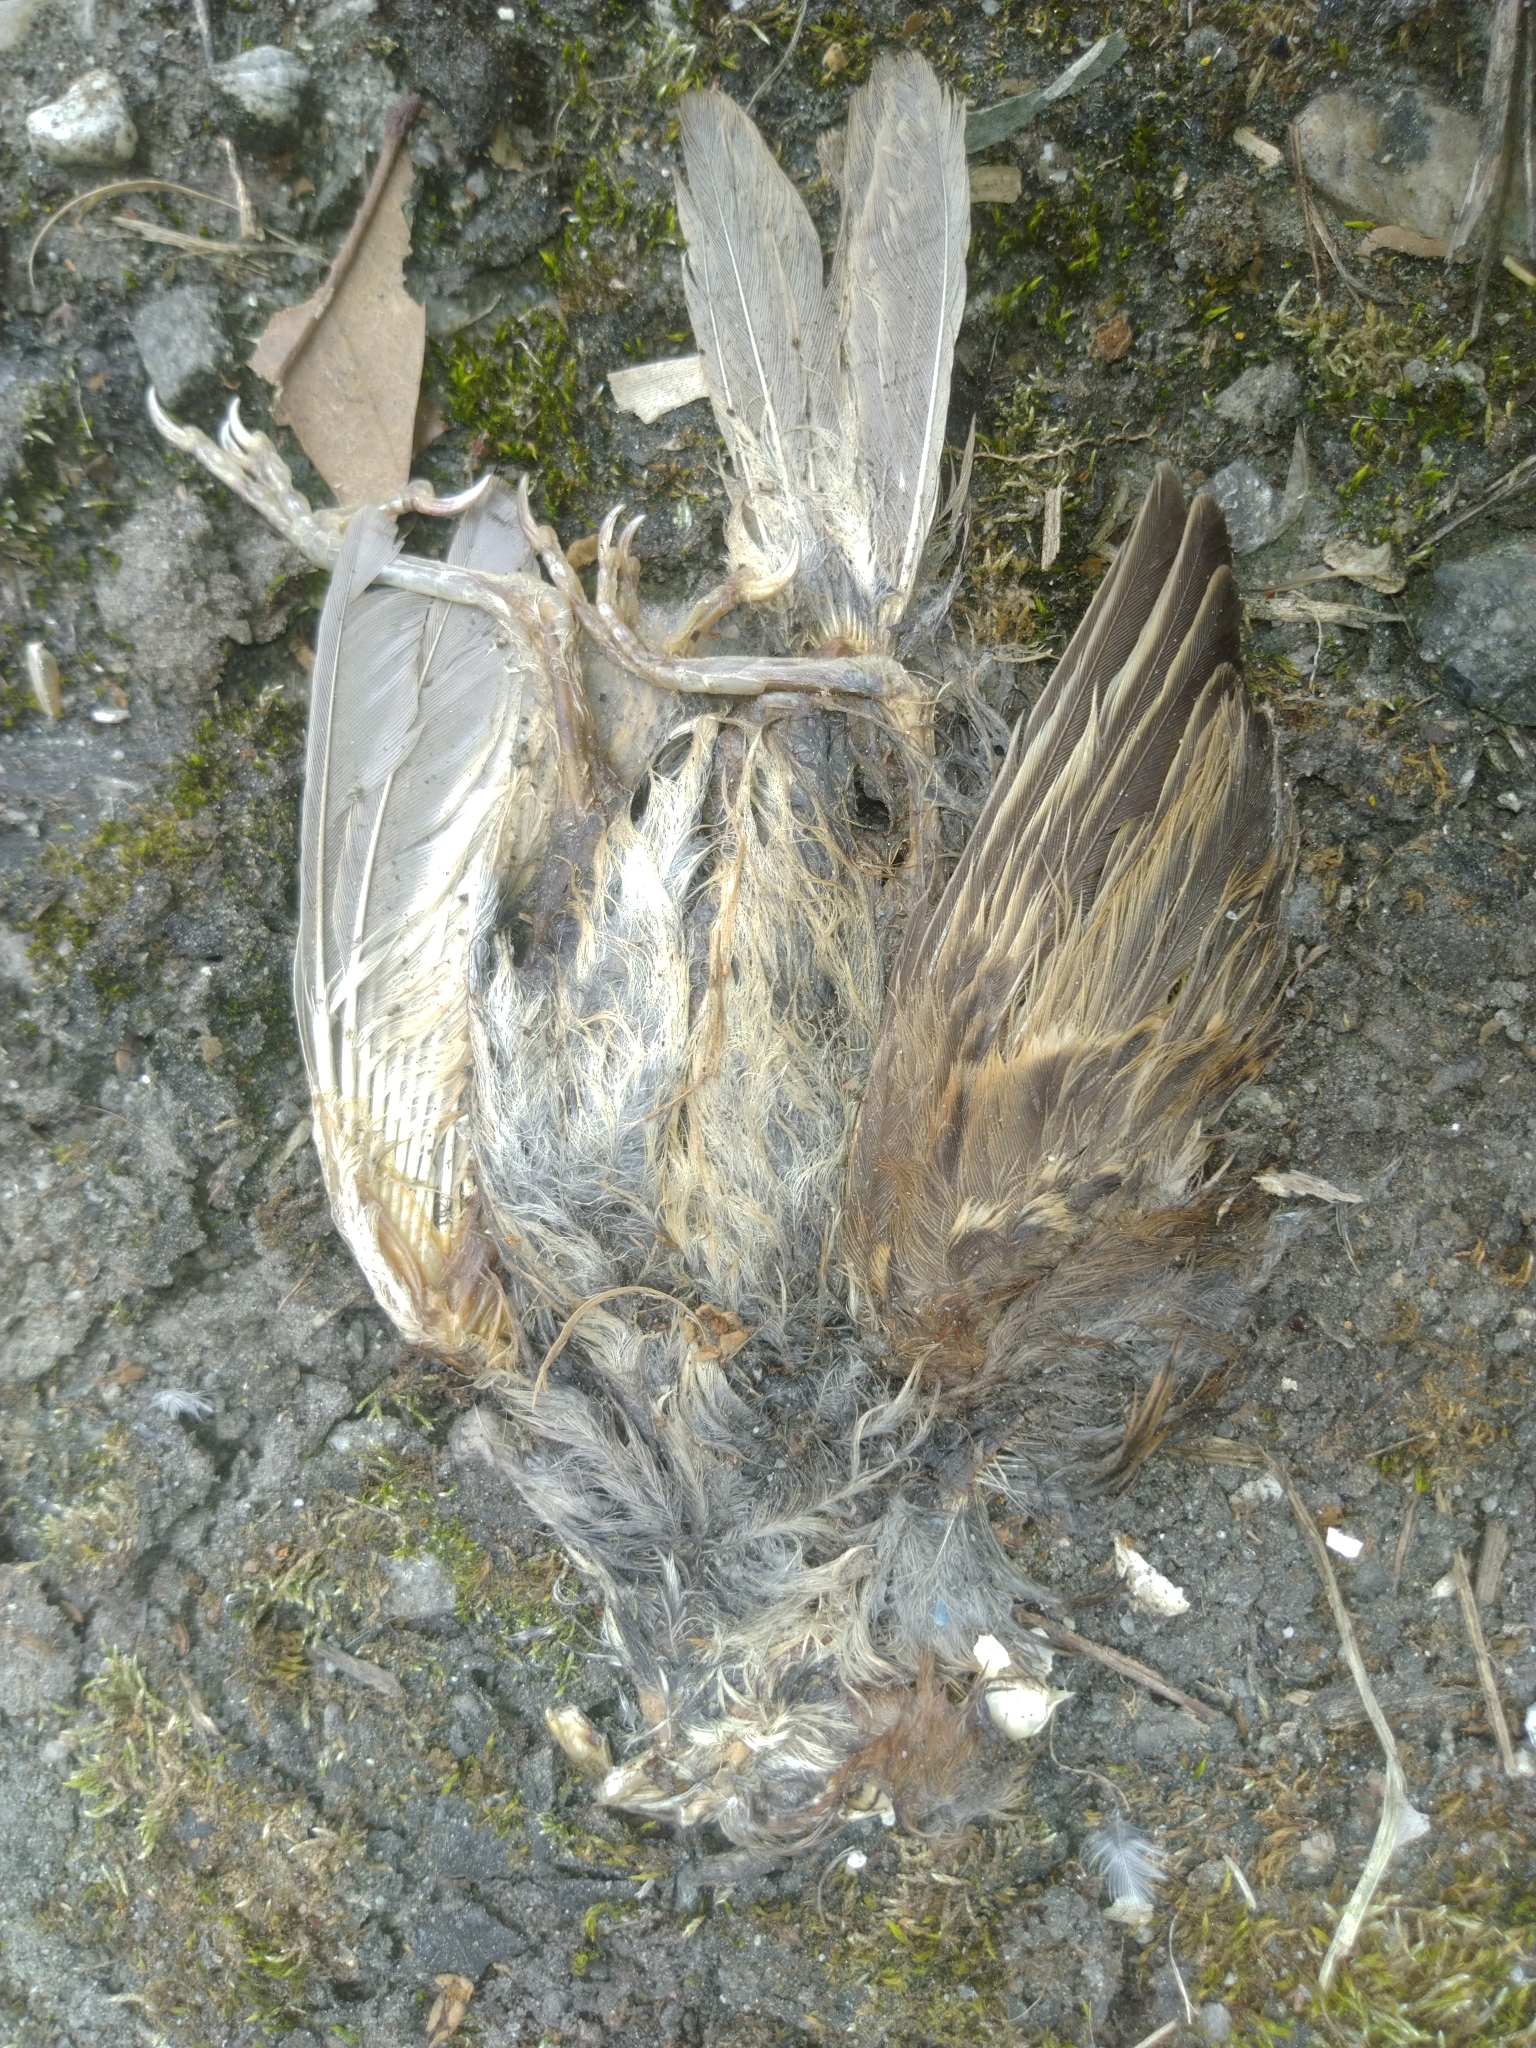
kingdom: Animalia
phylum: Chordata
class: Aves
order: Passeriformes
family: Passeridae
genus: Passer
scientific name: Passer montanus
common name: Eurasian tree sparrow
